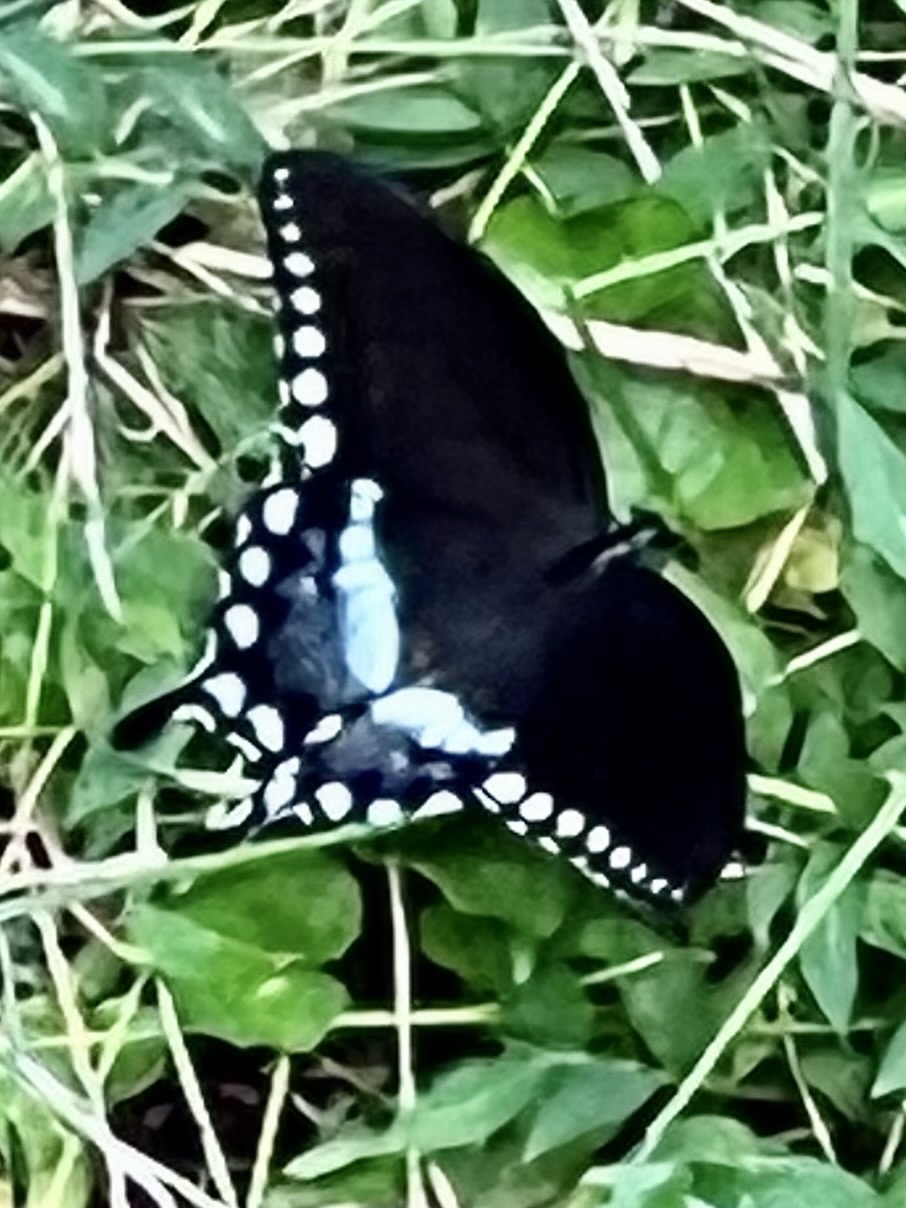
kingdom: Animalia
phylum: Arthropoda
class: Insecta
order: Lepidoptera
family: Papilionidae
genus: Papilio
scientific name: Papilio troilus
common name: Spicebush swallowtail
